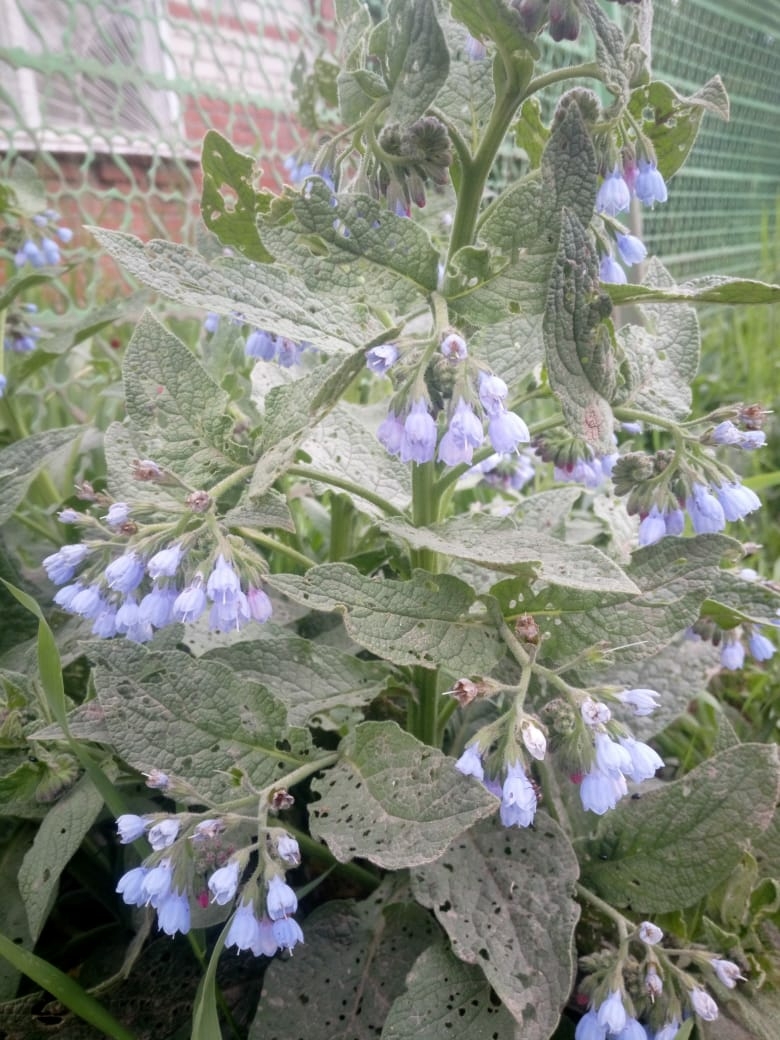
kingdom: Plantae
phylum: Tracheophyta
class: Magnoliopsida
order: Boraginales
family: Boraginaceae
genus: Symphytum
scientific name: Symphytum caucasicum
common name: Caucasian comfrey
